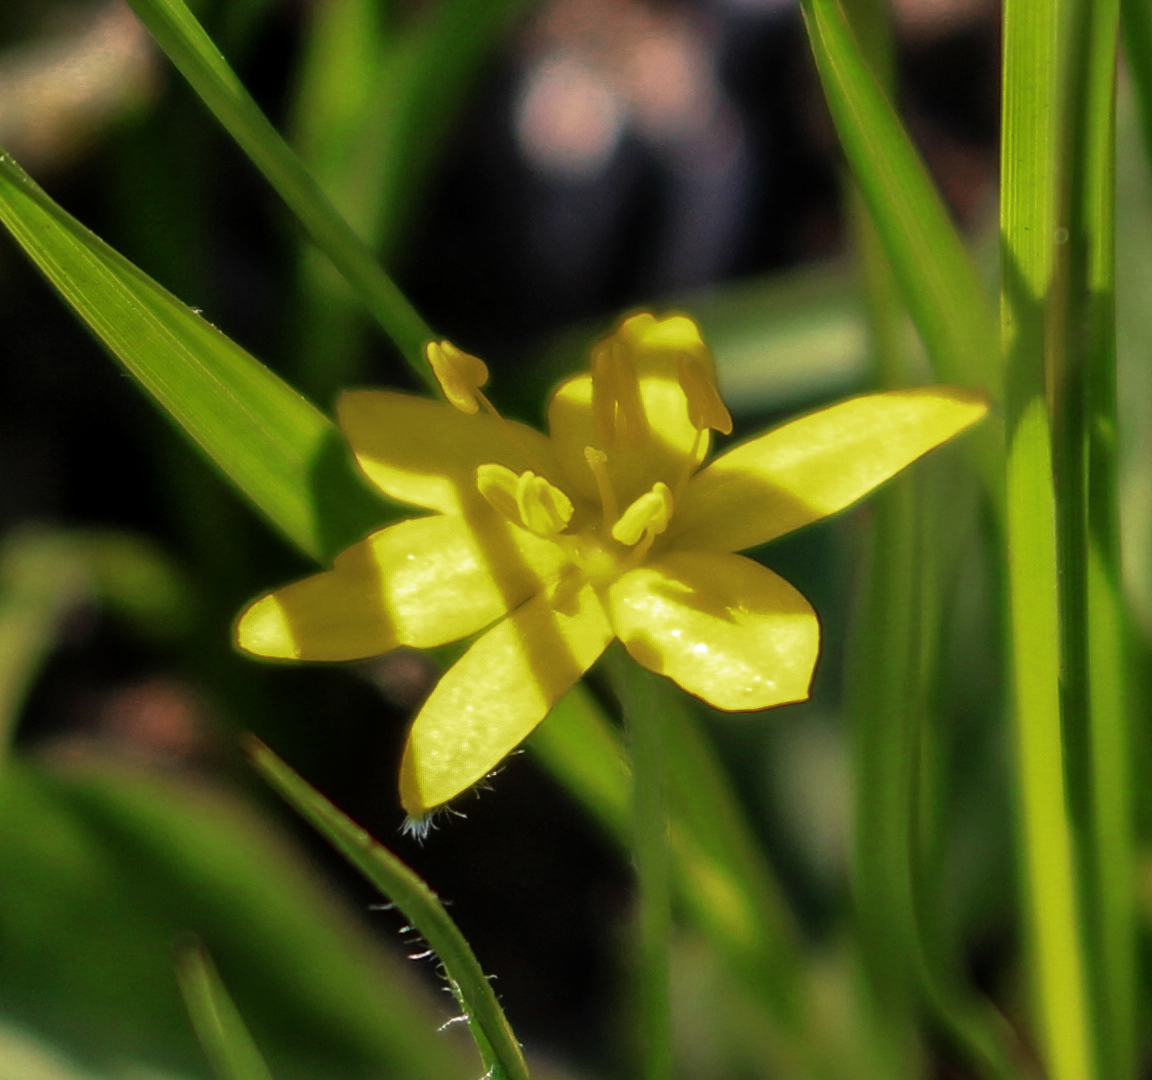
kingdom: Plantae
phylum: Tracheophyta
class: Liliopsida
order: Asparagales
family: Hypoxidaceae
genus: Hypoxis
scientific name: Hypoxis hirsuta
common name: Common goldstar
